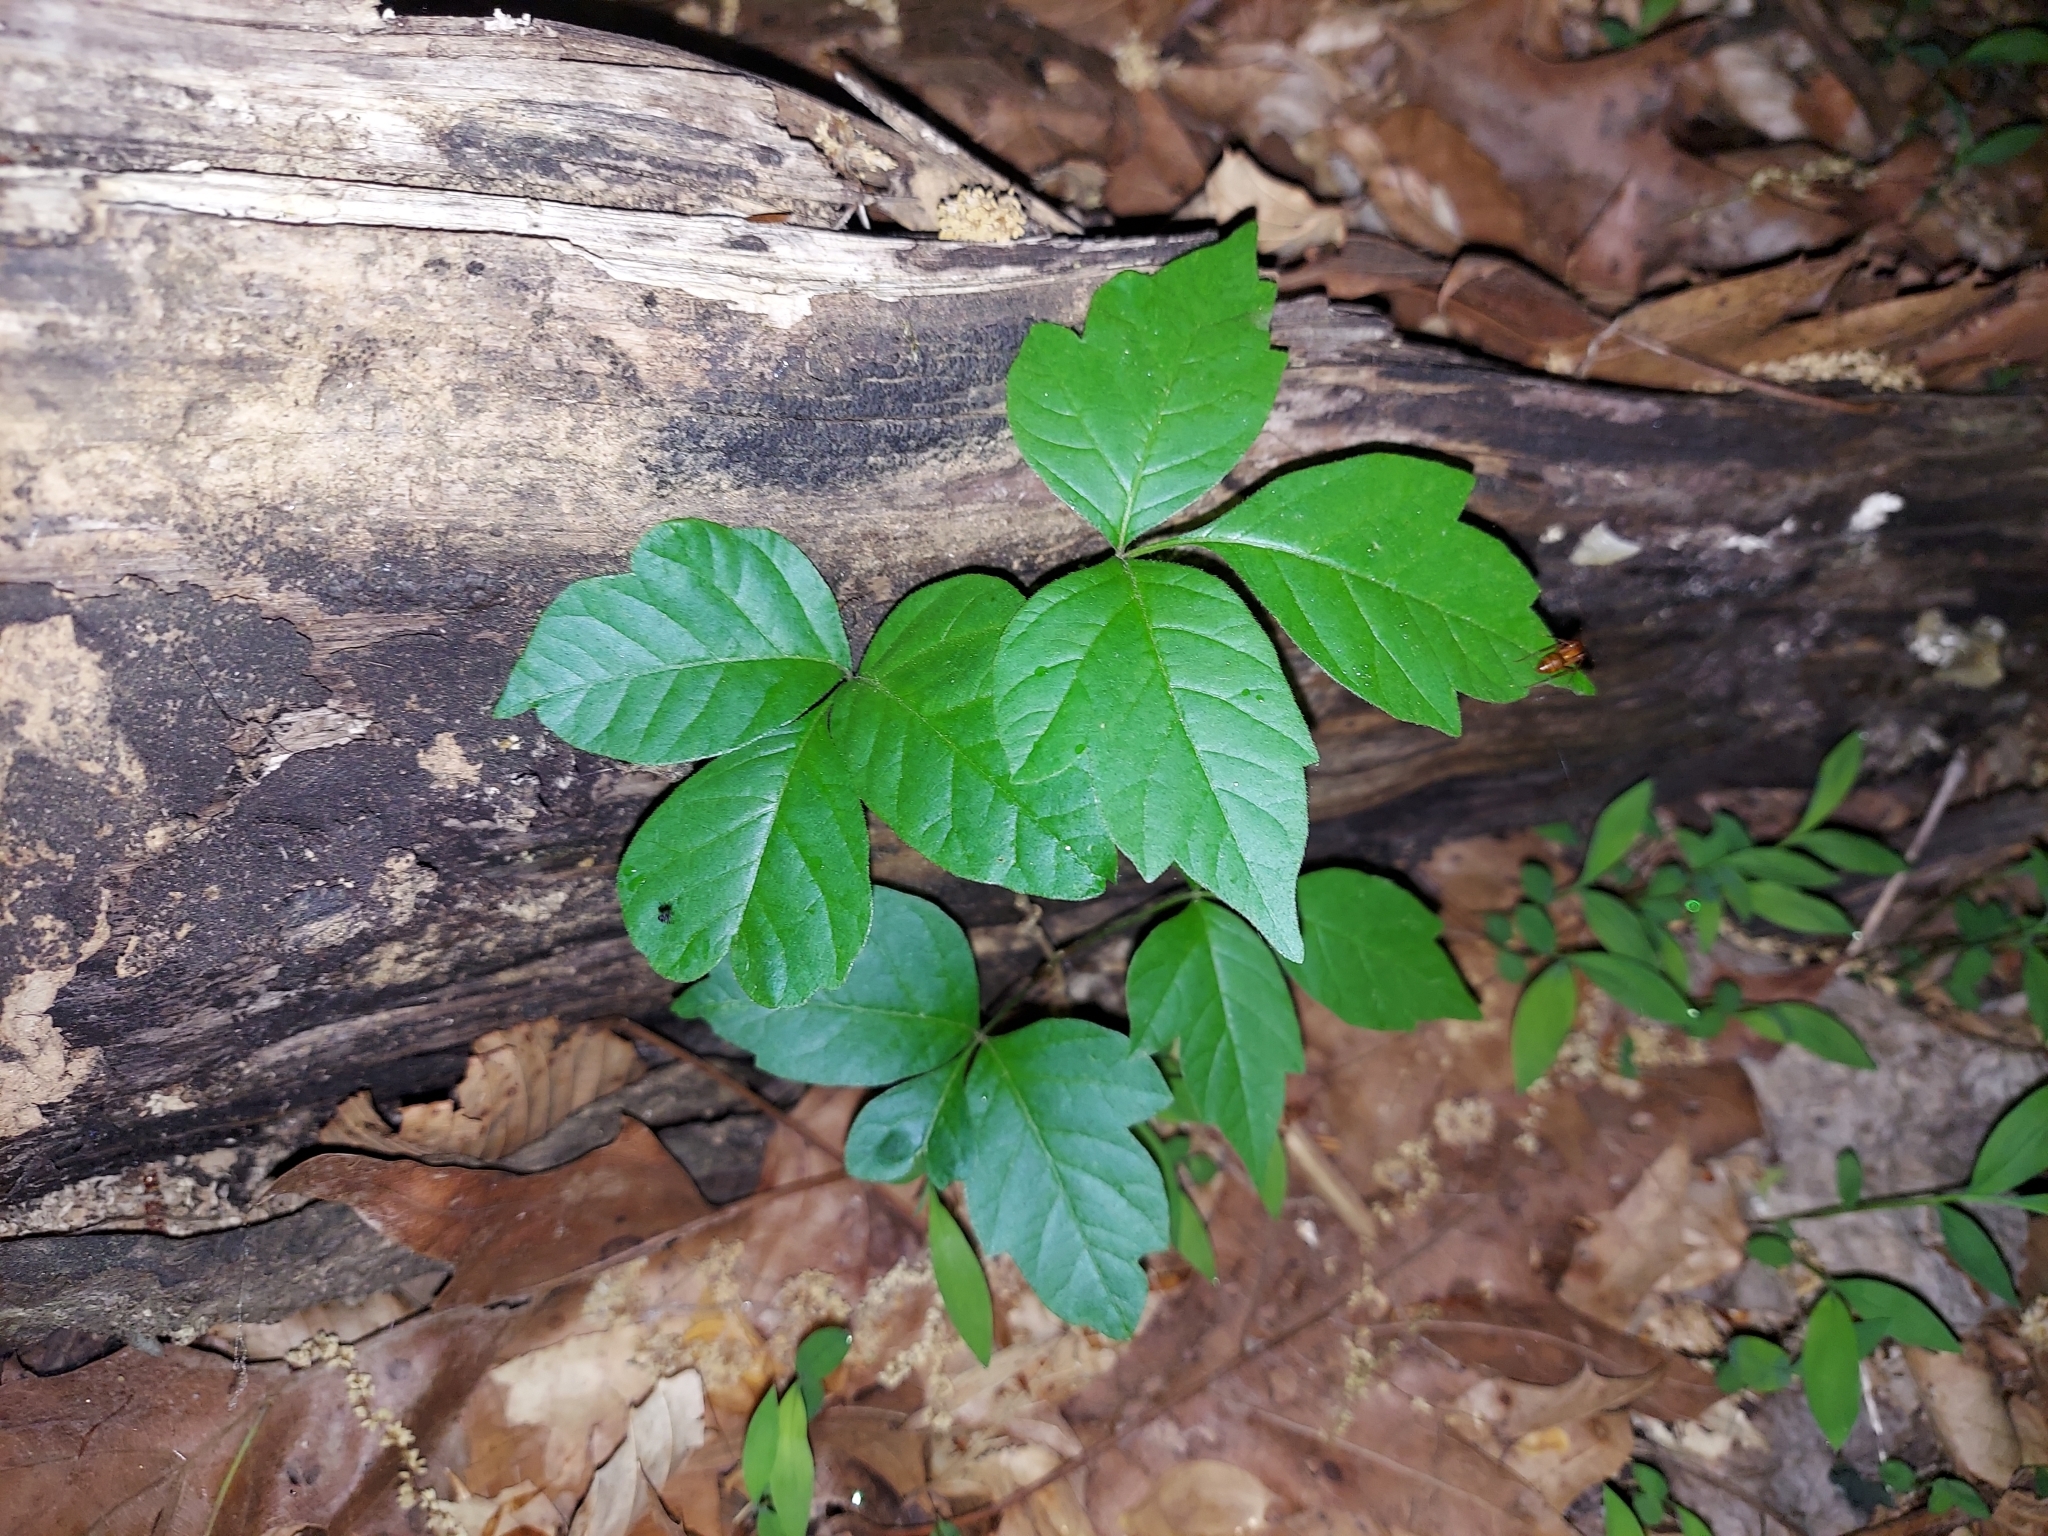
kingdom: Plantae
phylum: Tracheophyta
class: Magnoliopsida
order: Sapindales
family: Anacardiaceae
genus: Toxicodendron
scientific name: Toxicodendron radicans
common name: Poison ivy
